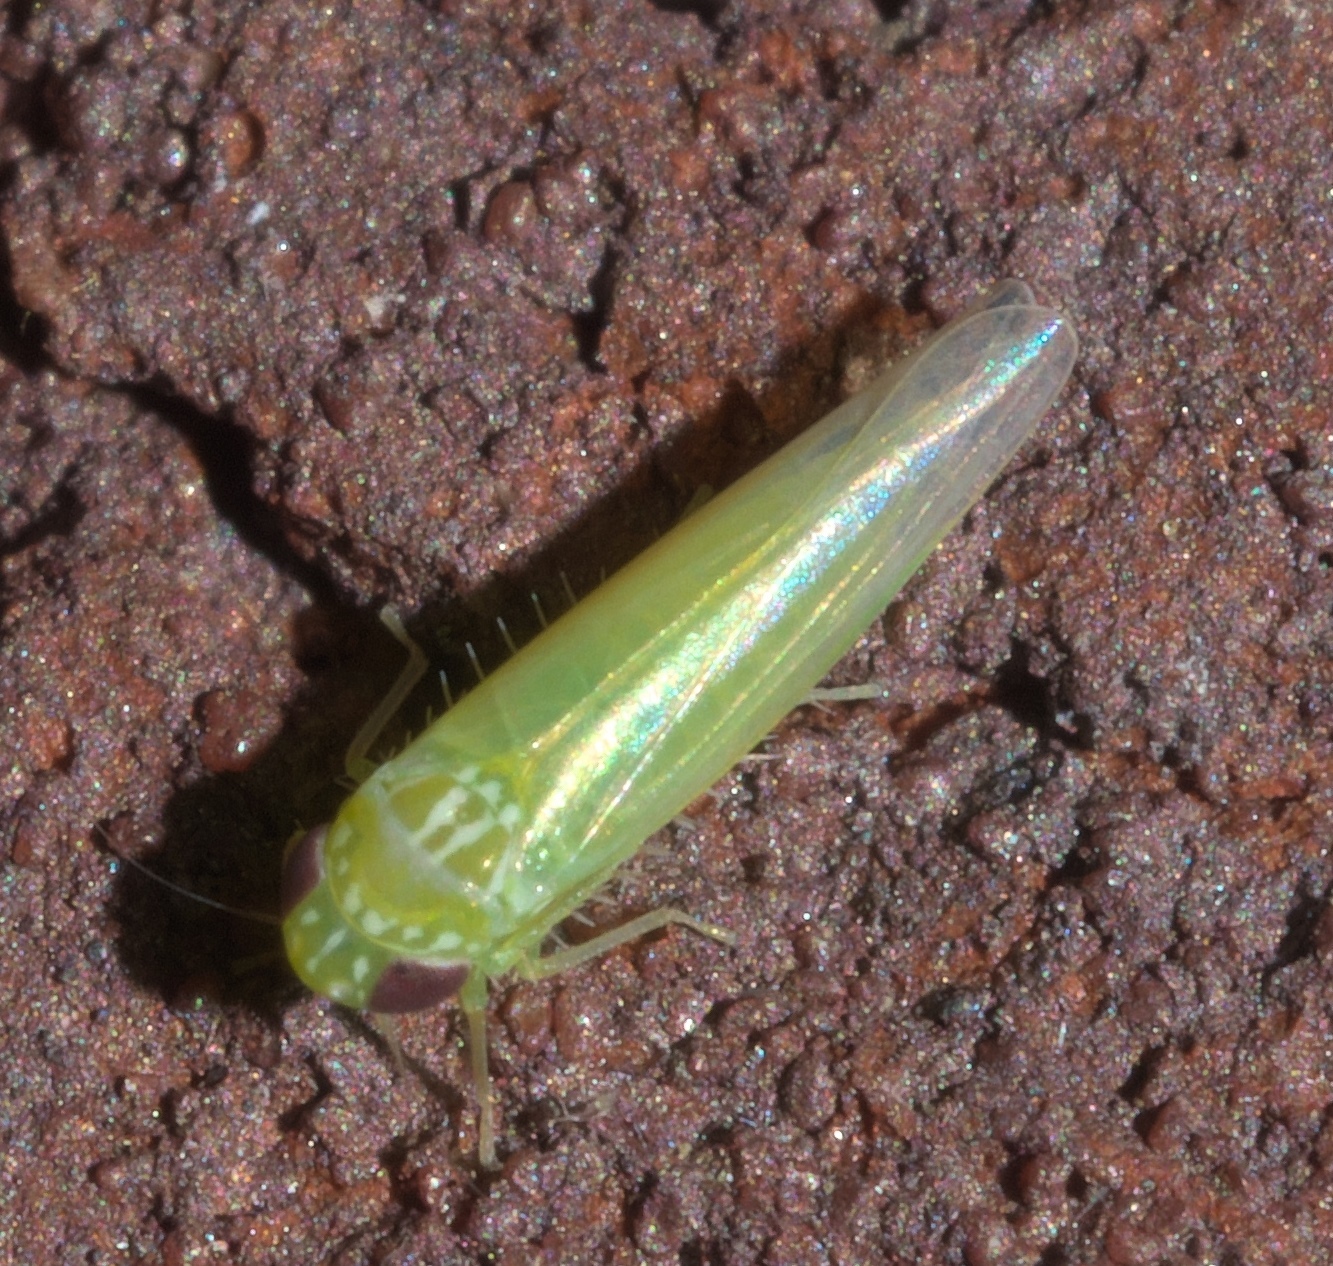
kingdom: Animalia
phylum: Arthropoda
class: Insecta
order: Hemiptera
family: Cicadellidae
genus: Empoasca
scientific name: Empoasca fabae
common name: Potato leafhopper
